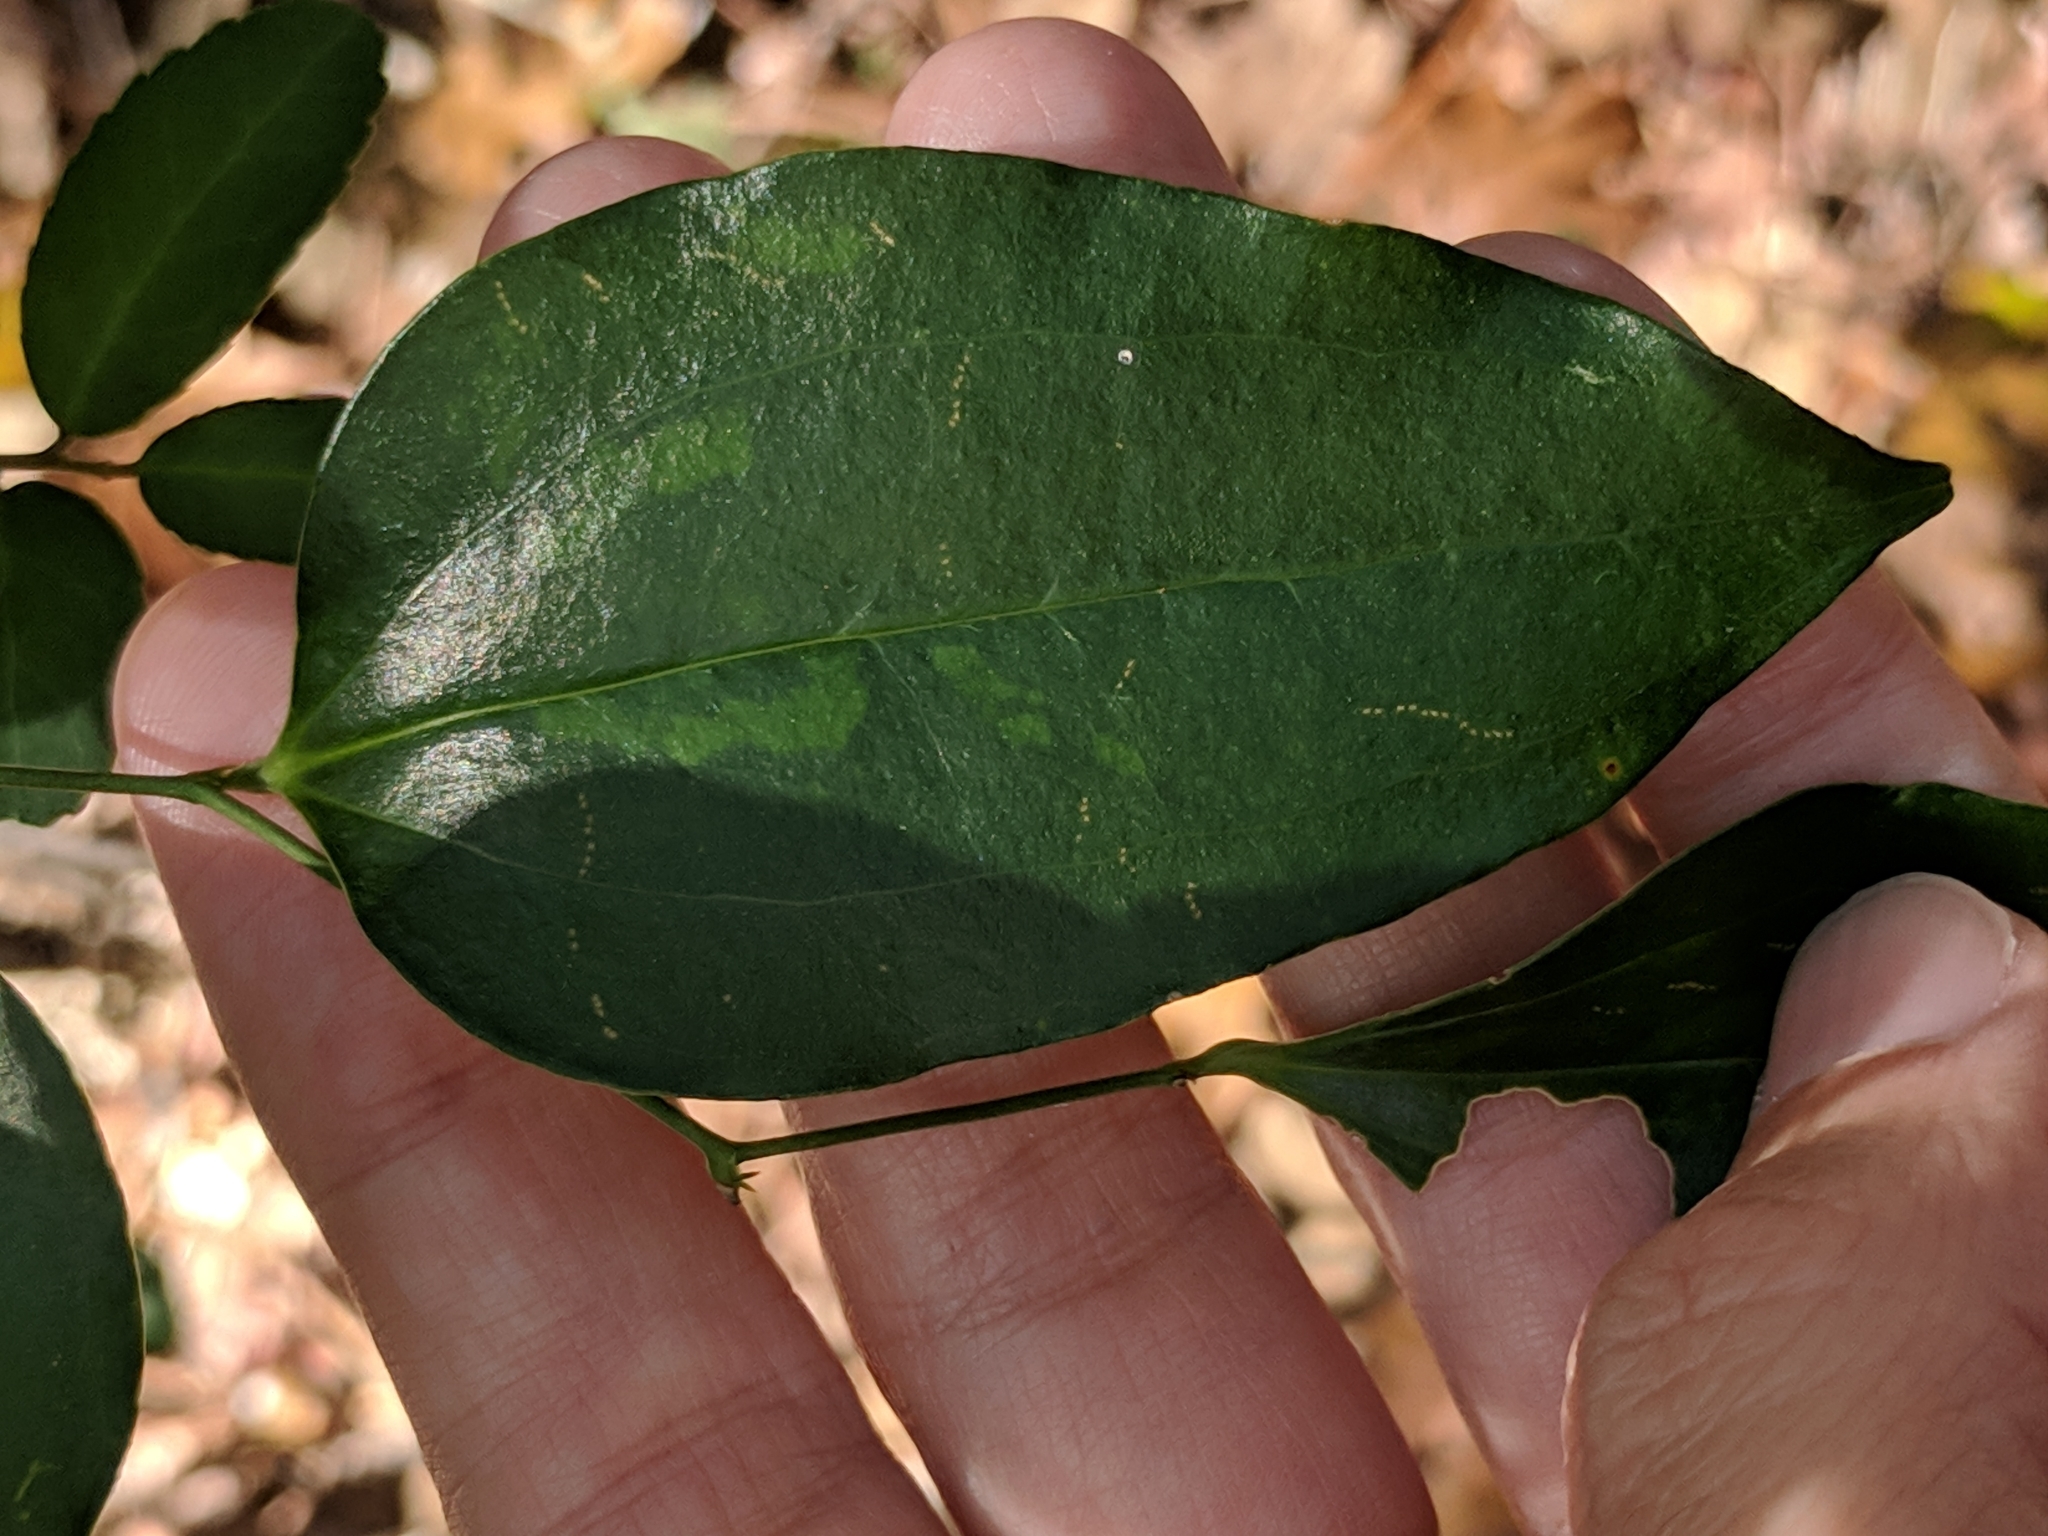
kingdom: Plantae
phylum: Tracheophyta
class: Liliopsida
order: Liliales
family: Smilacaceae
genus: Smilax
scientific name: Smilax maritima
